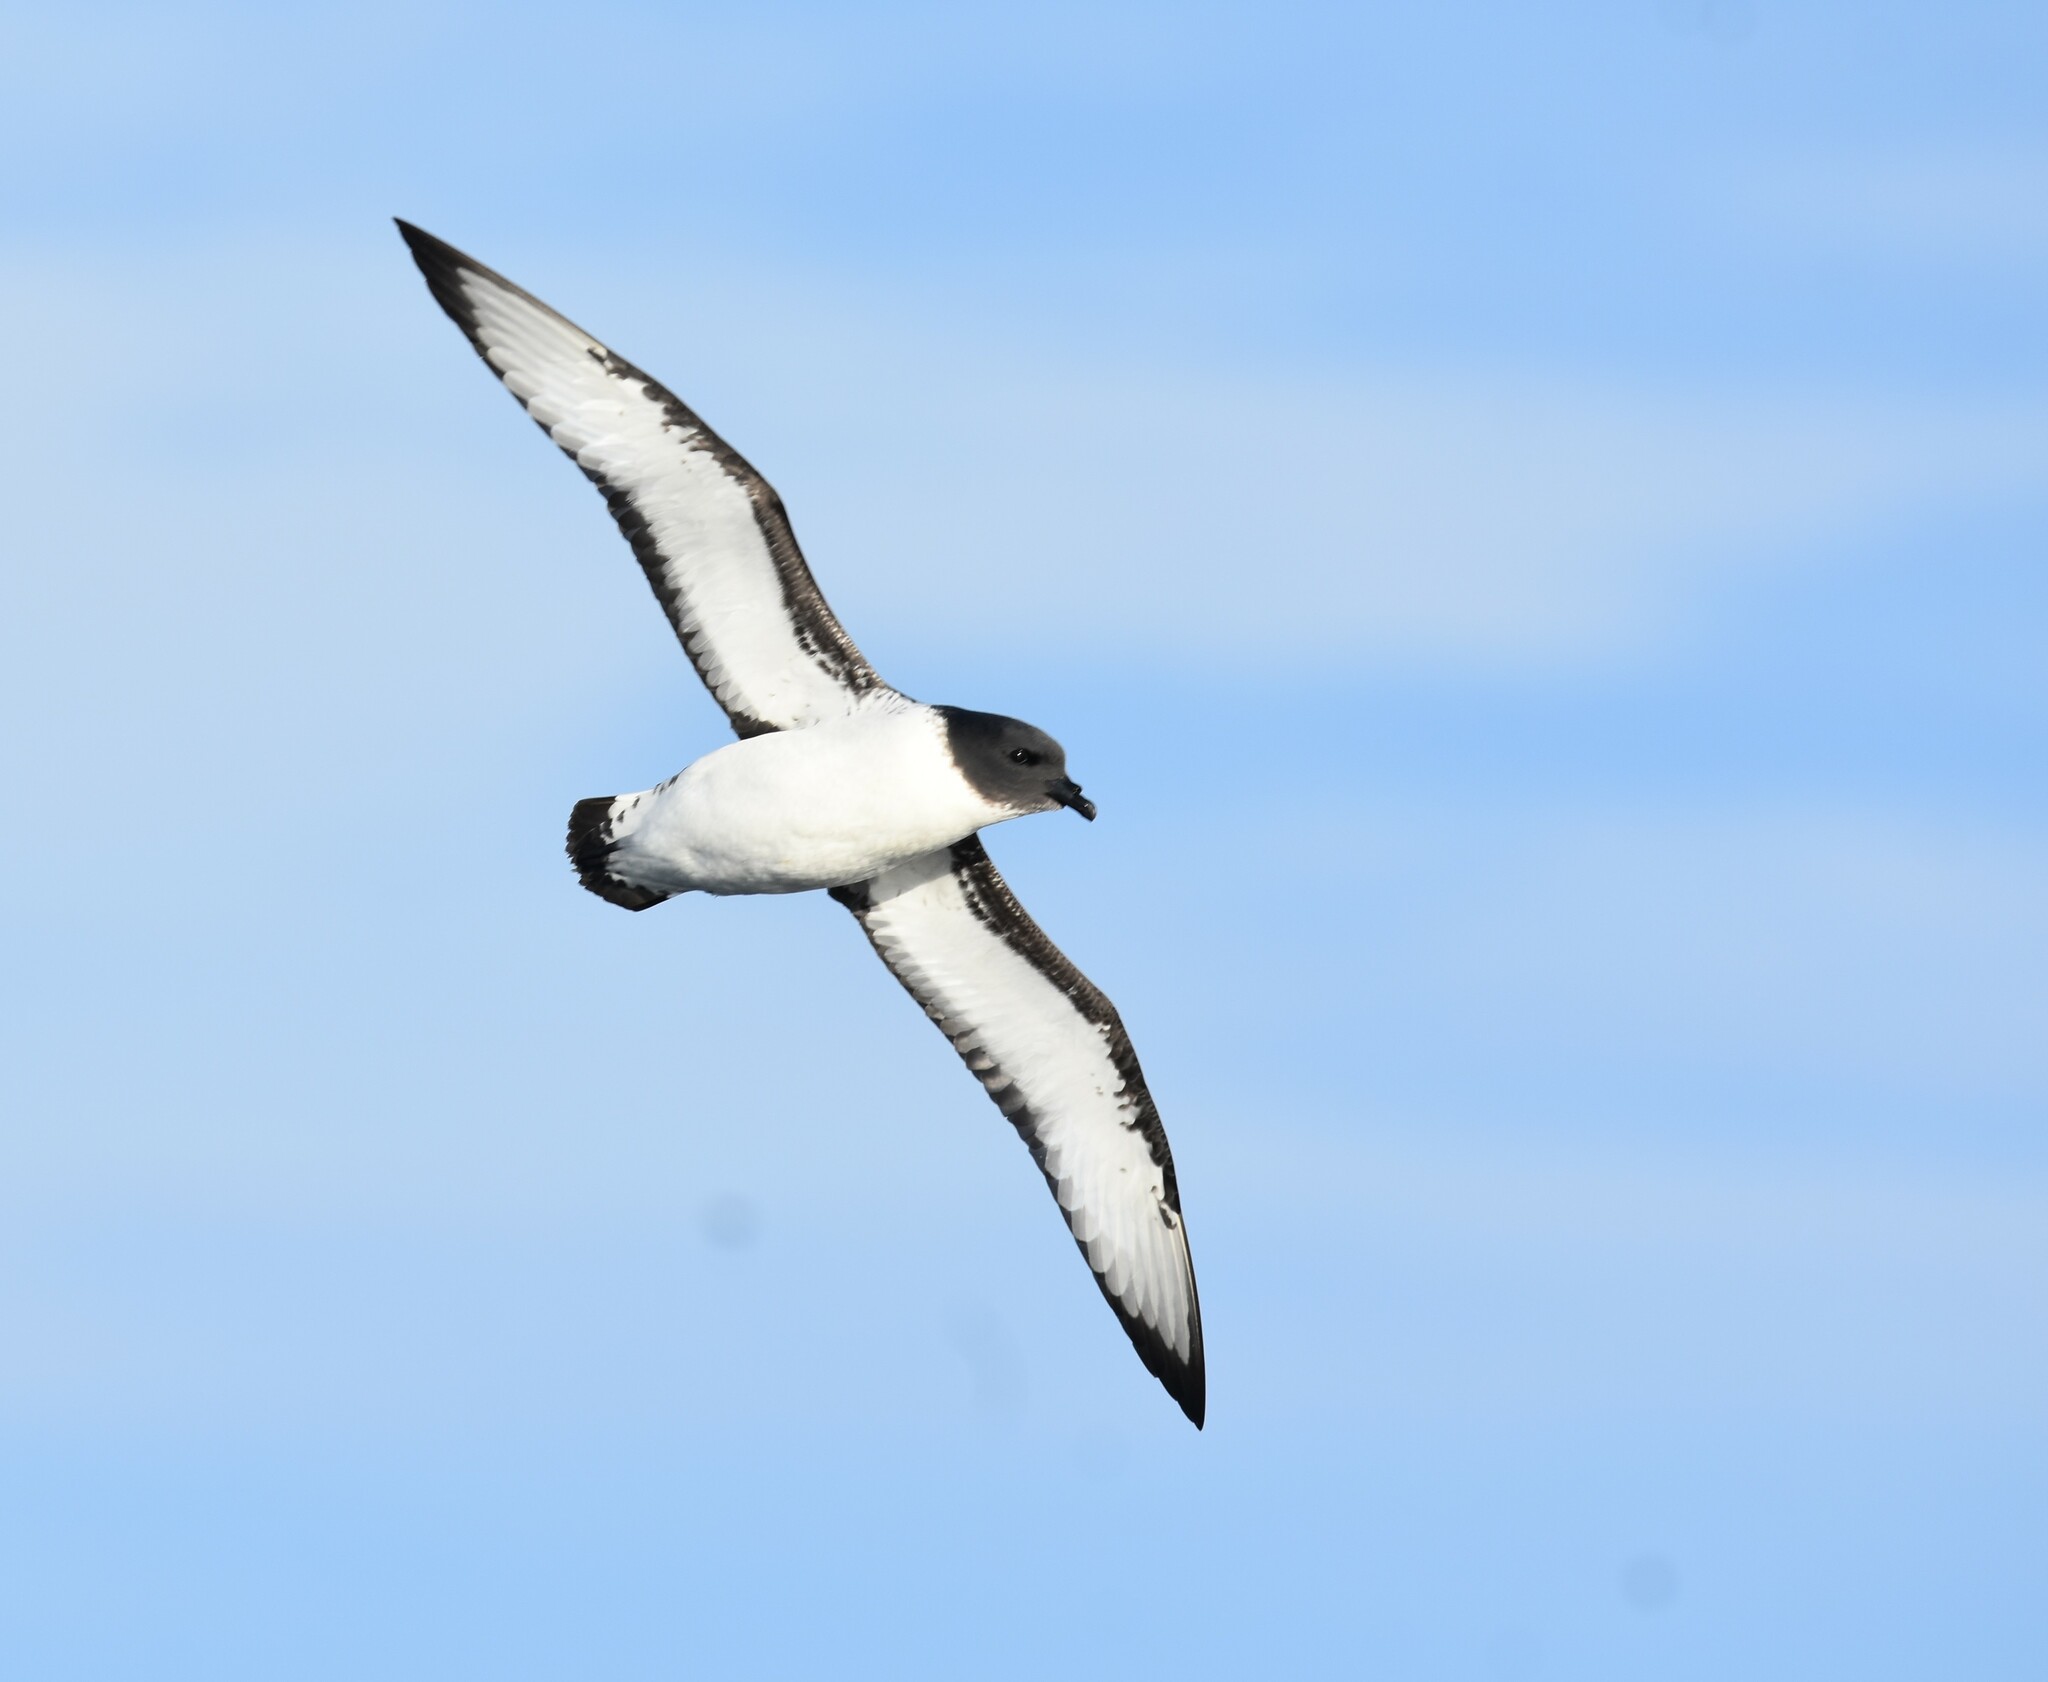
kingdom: Animalia
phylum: Chordata
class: Aves
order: Procellariiformes
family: Procellariidae
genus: Daption
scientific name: Daption capense
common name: Cape petrel
